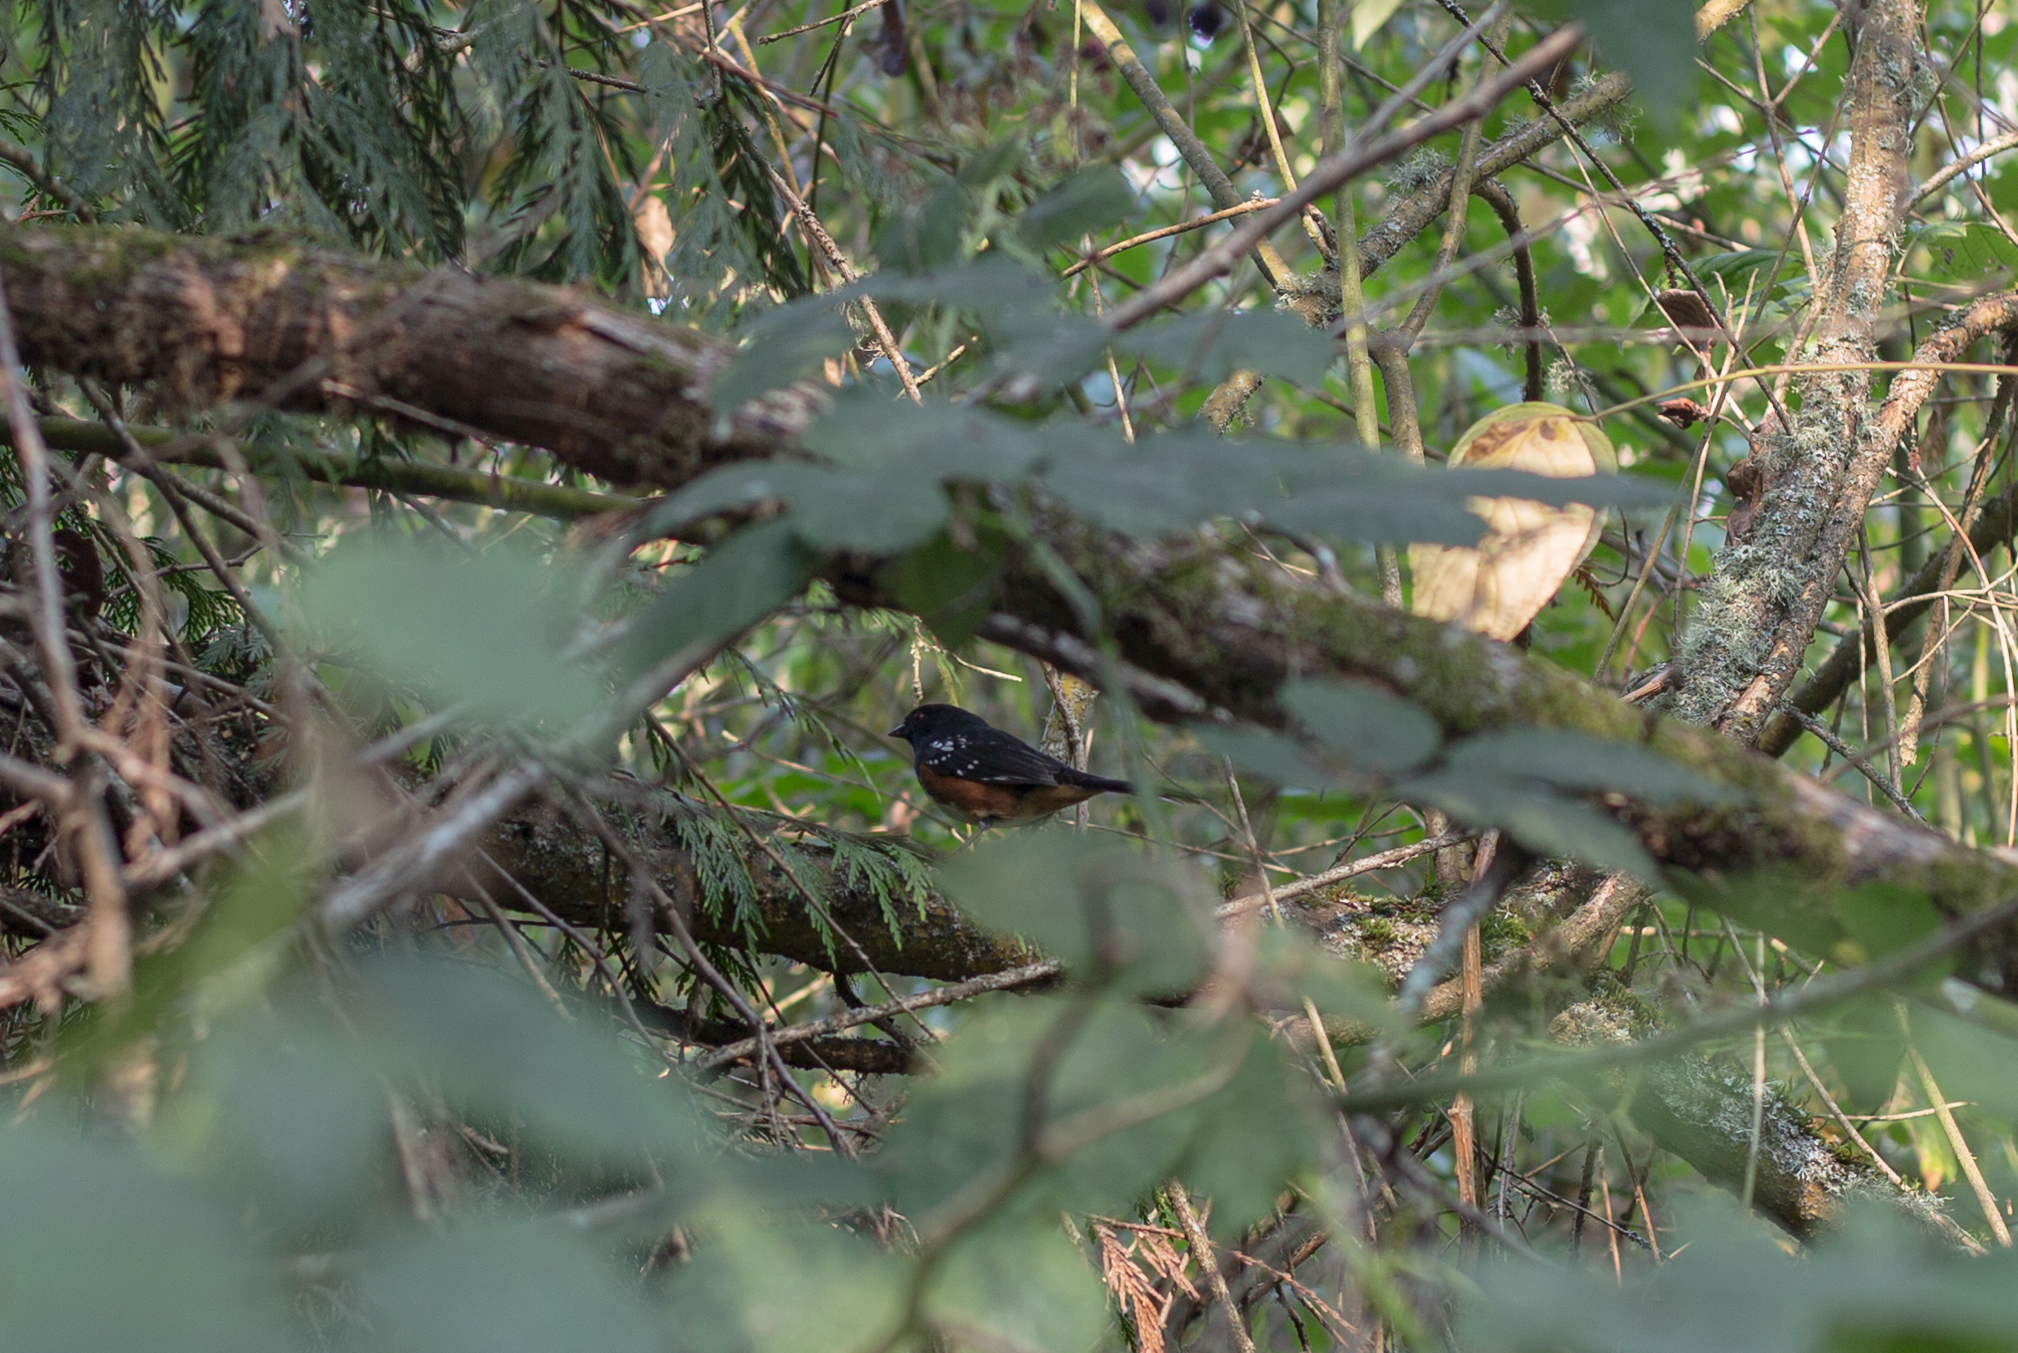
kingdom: Animalia
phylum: Chordata
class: Aves
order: Passeriformes
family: Passerellidae
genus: Pipilo
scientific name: Pipilo maculatus
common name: Spotted towhee
